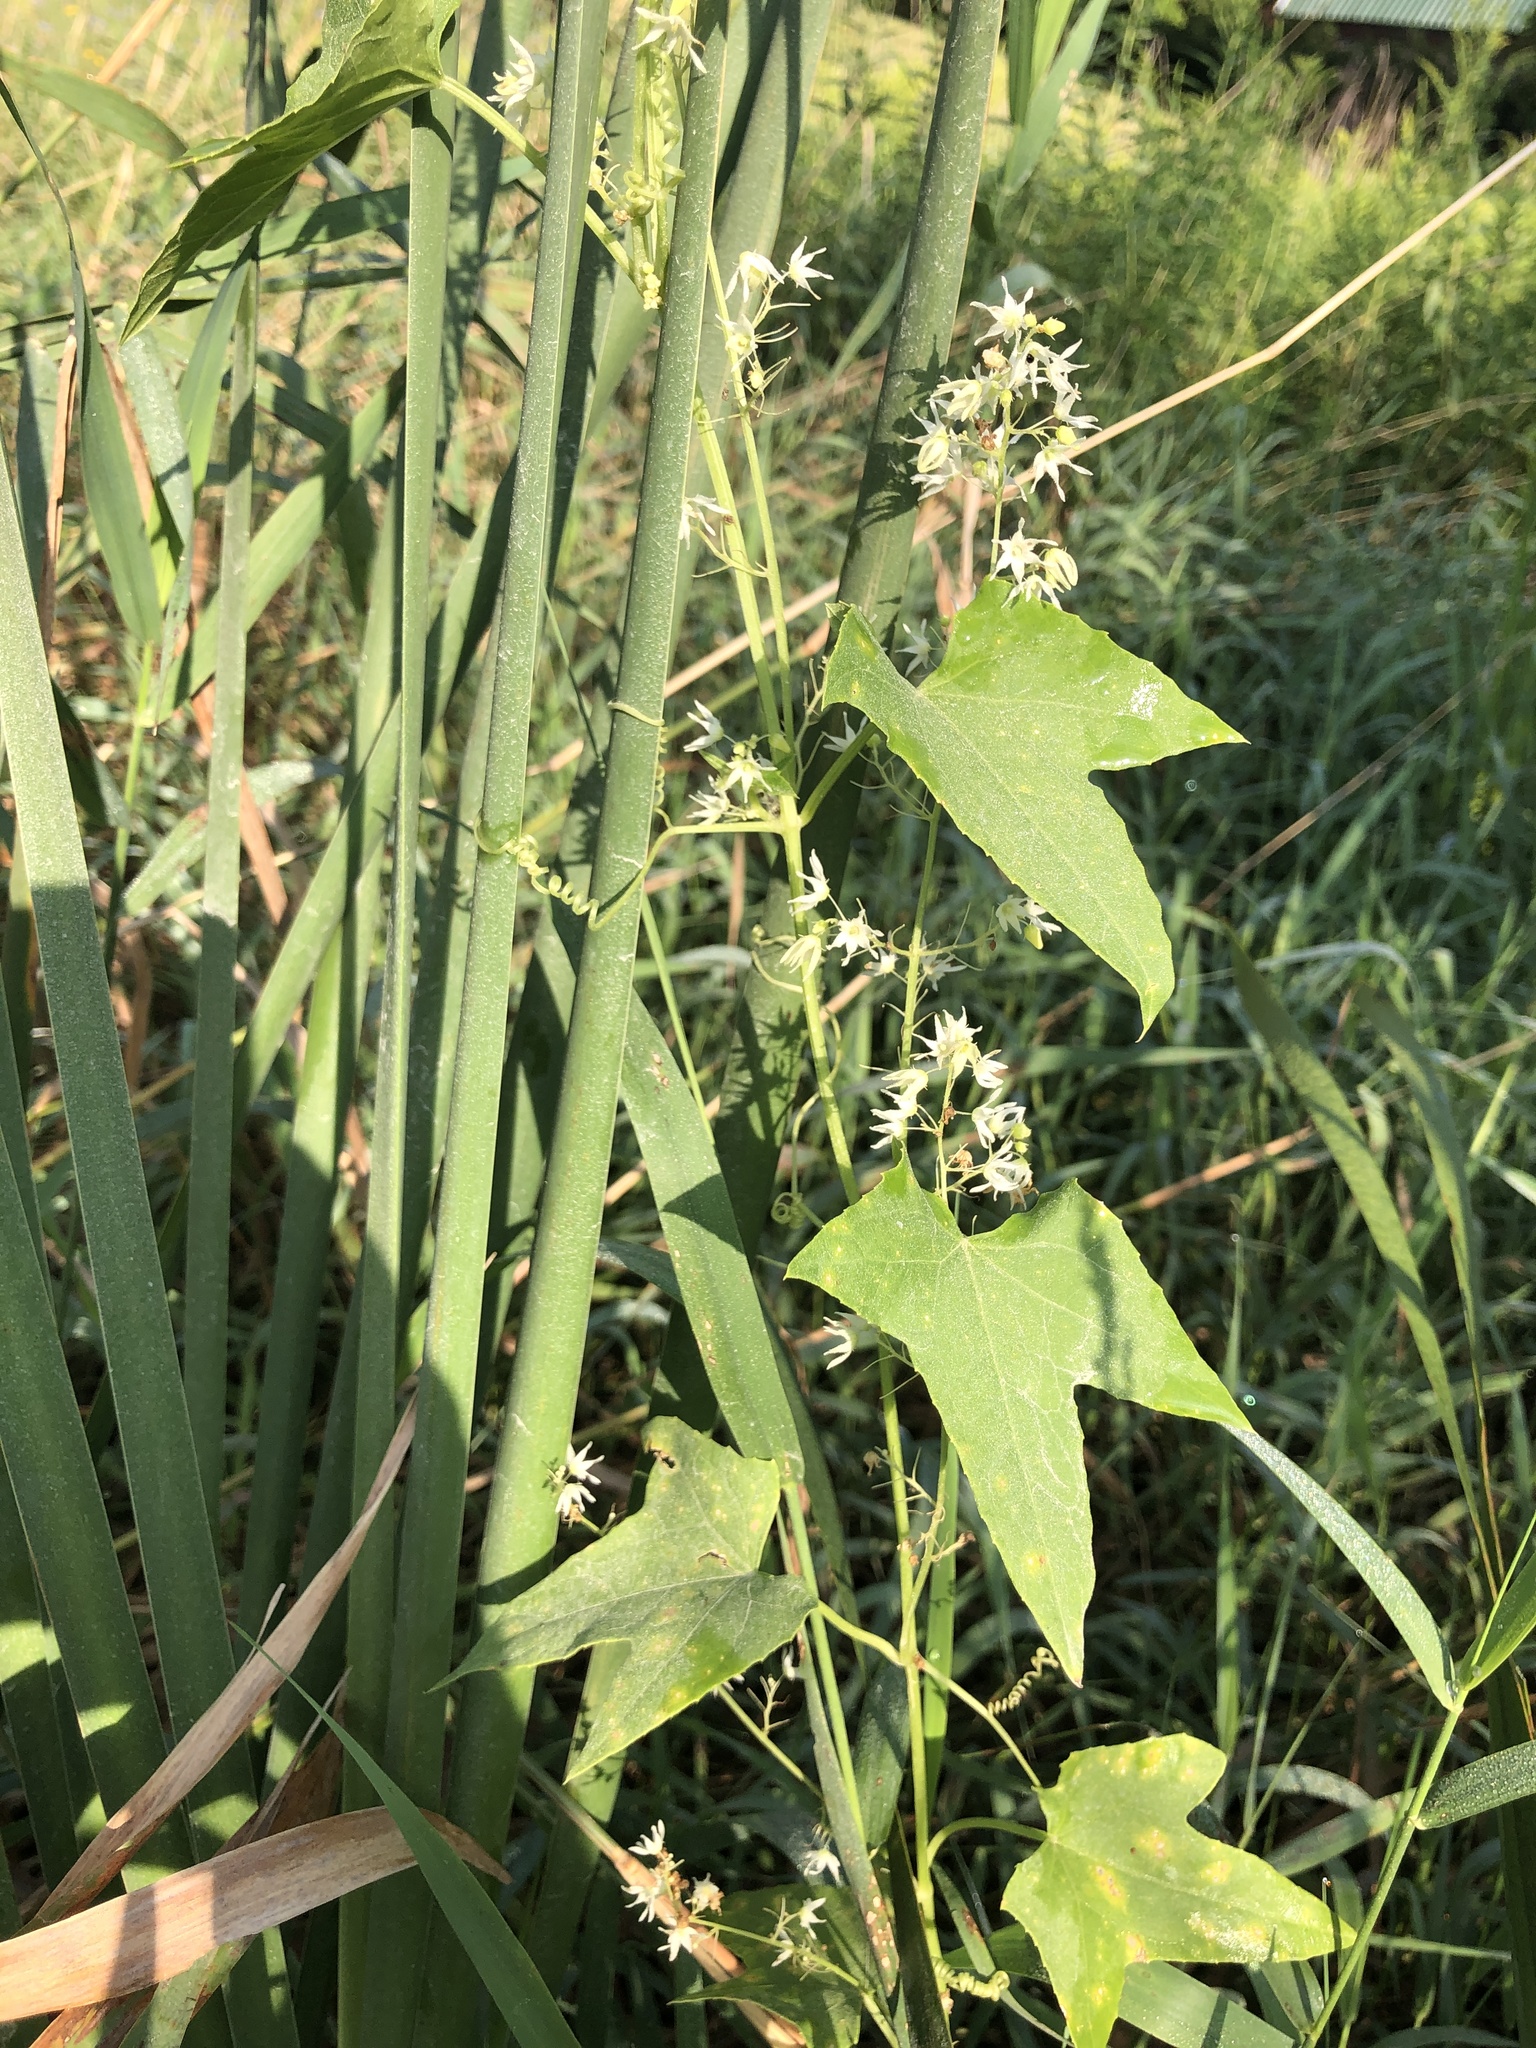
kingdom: Plantae
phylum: Tracheophyta
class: Magnoliopsida
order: Cucurbitales
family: Cucurbitaceae
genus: Echinocystis
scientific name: Echinocystis lobata
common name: Wild cucumber
